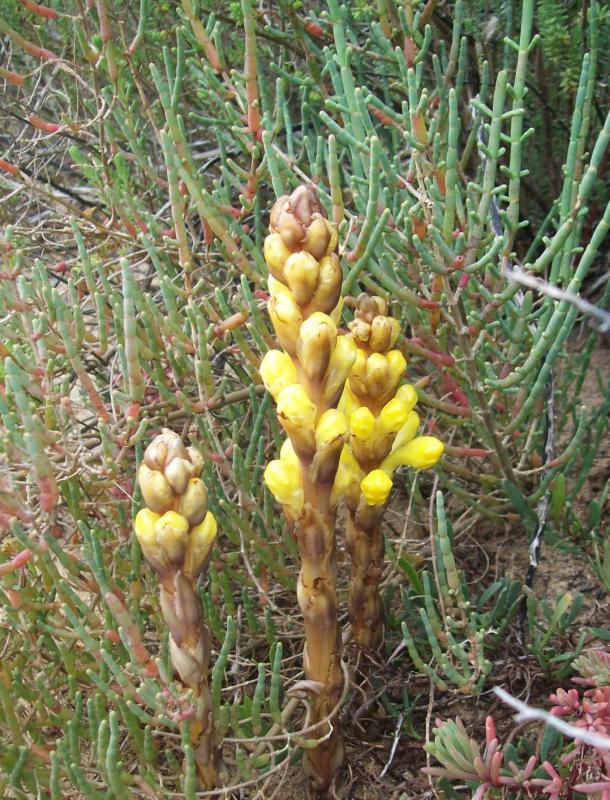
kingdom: Plantae
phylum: Tracheophyta
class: Magnoliopsida
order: Lamiales
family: Orobanchaceae
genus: Cistanche
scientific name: Cistanche phelypaea
